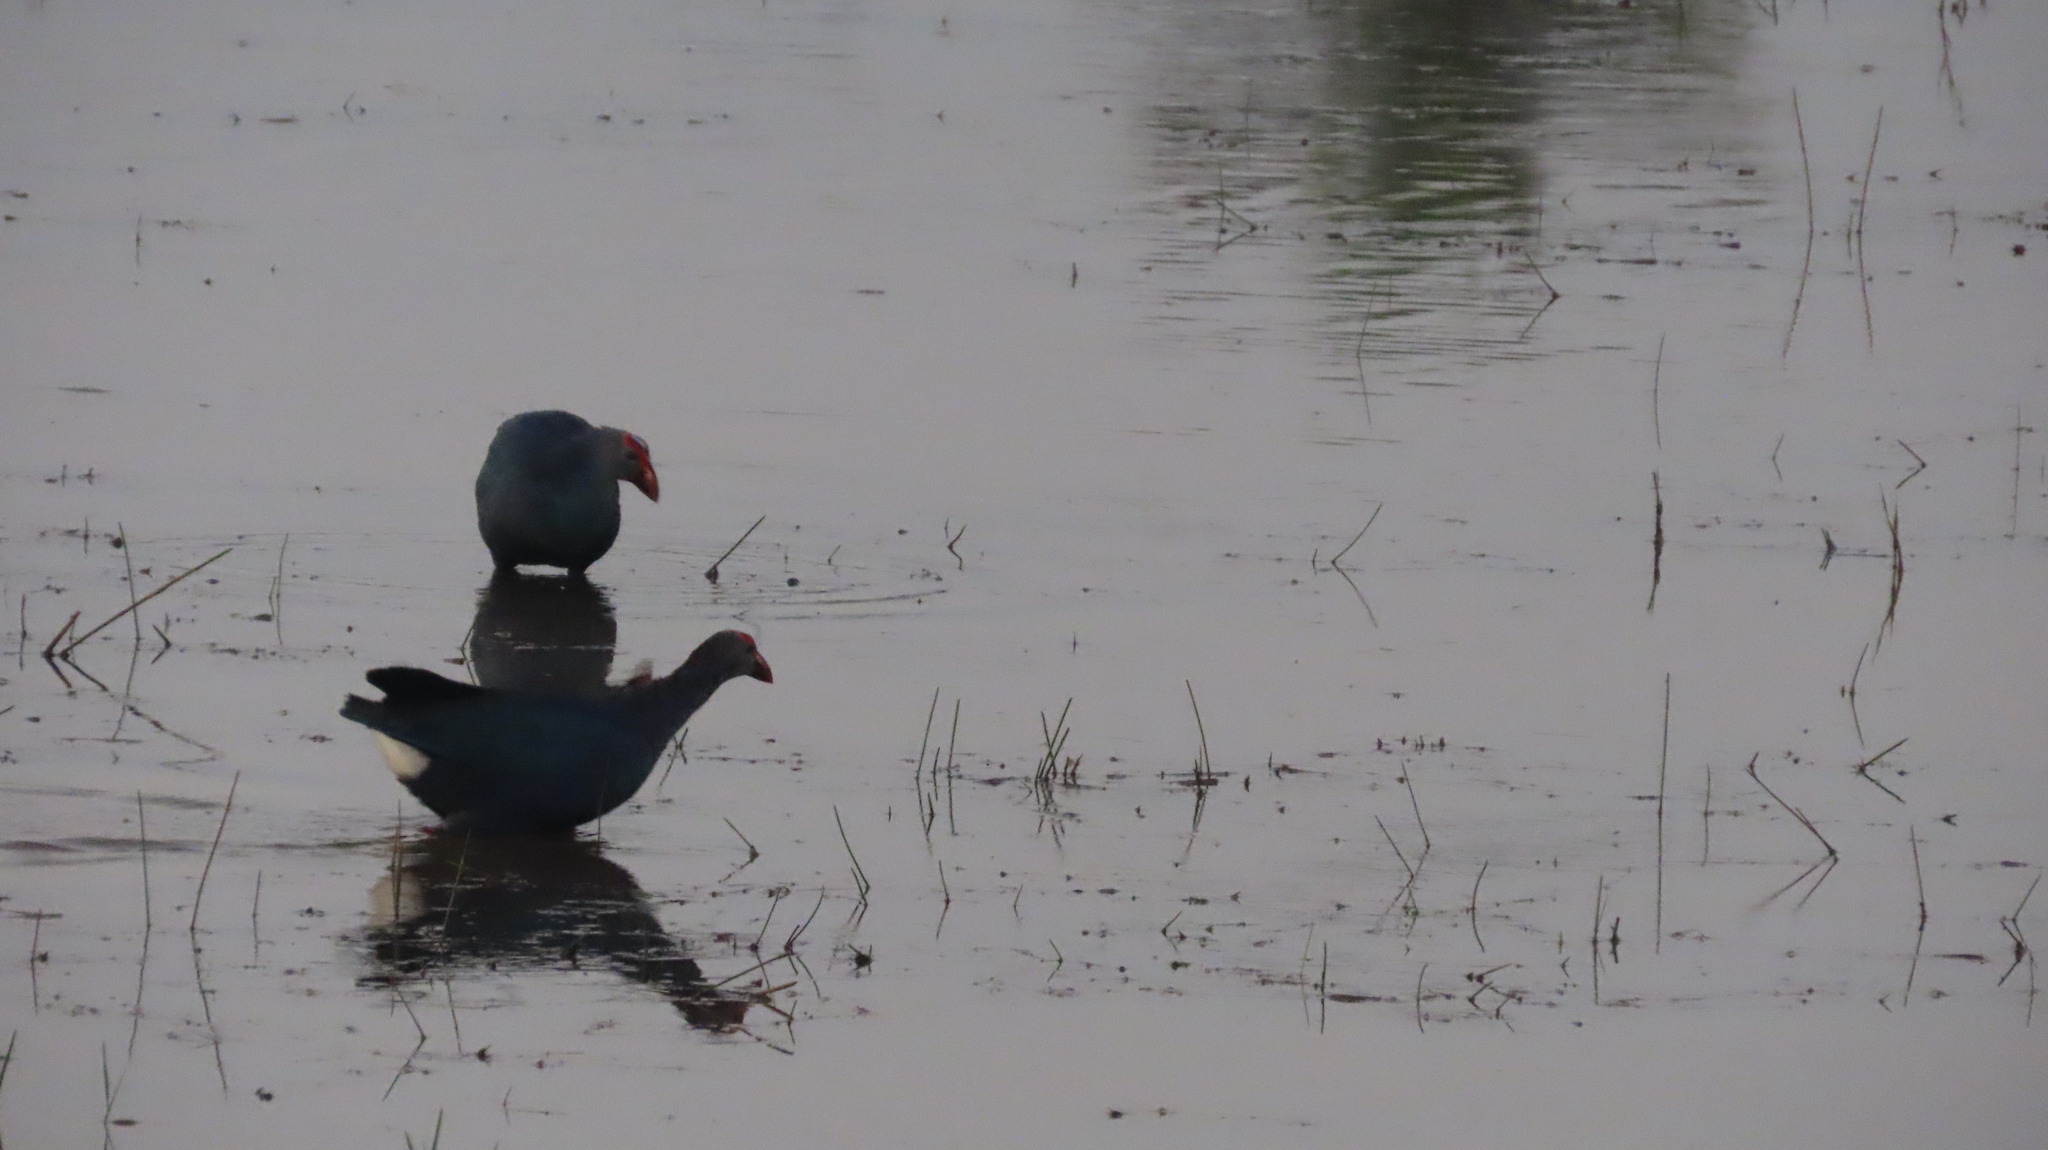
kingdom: Animalia
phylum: Chordata
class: Aves
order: Gruiformes
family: Rallidae
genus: Porphyrio
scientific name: Porphyrio porphyrio
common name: Purple swamphen
